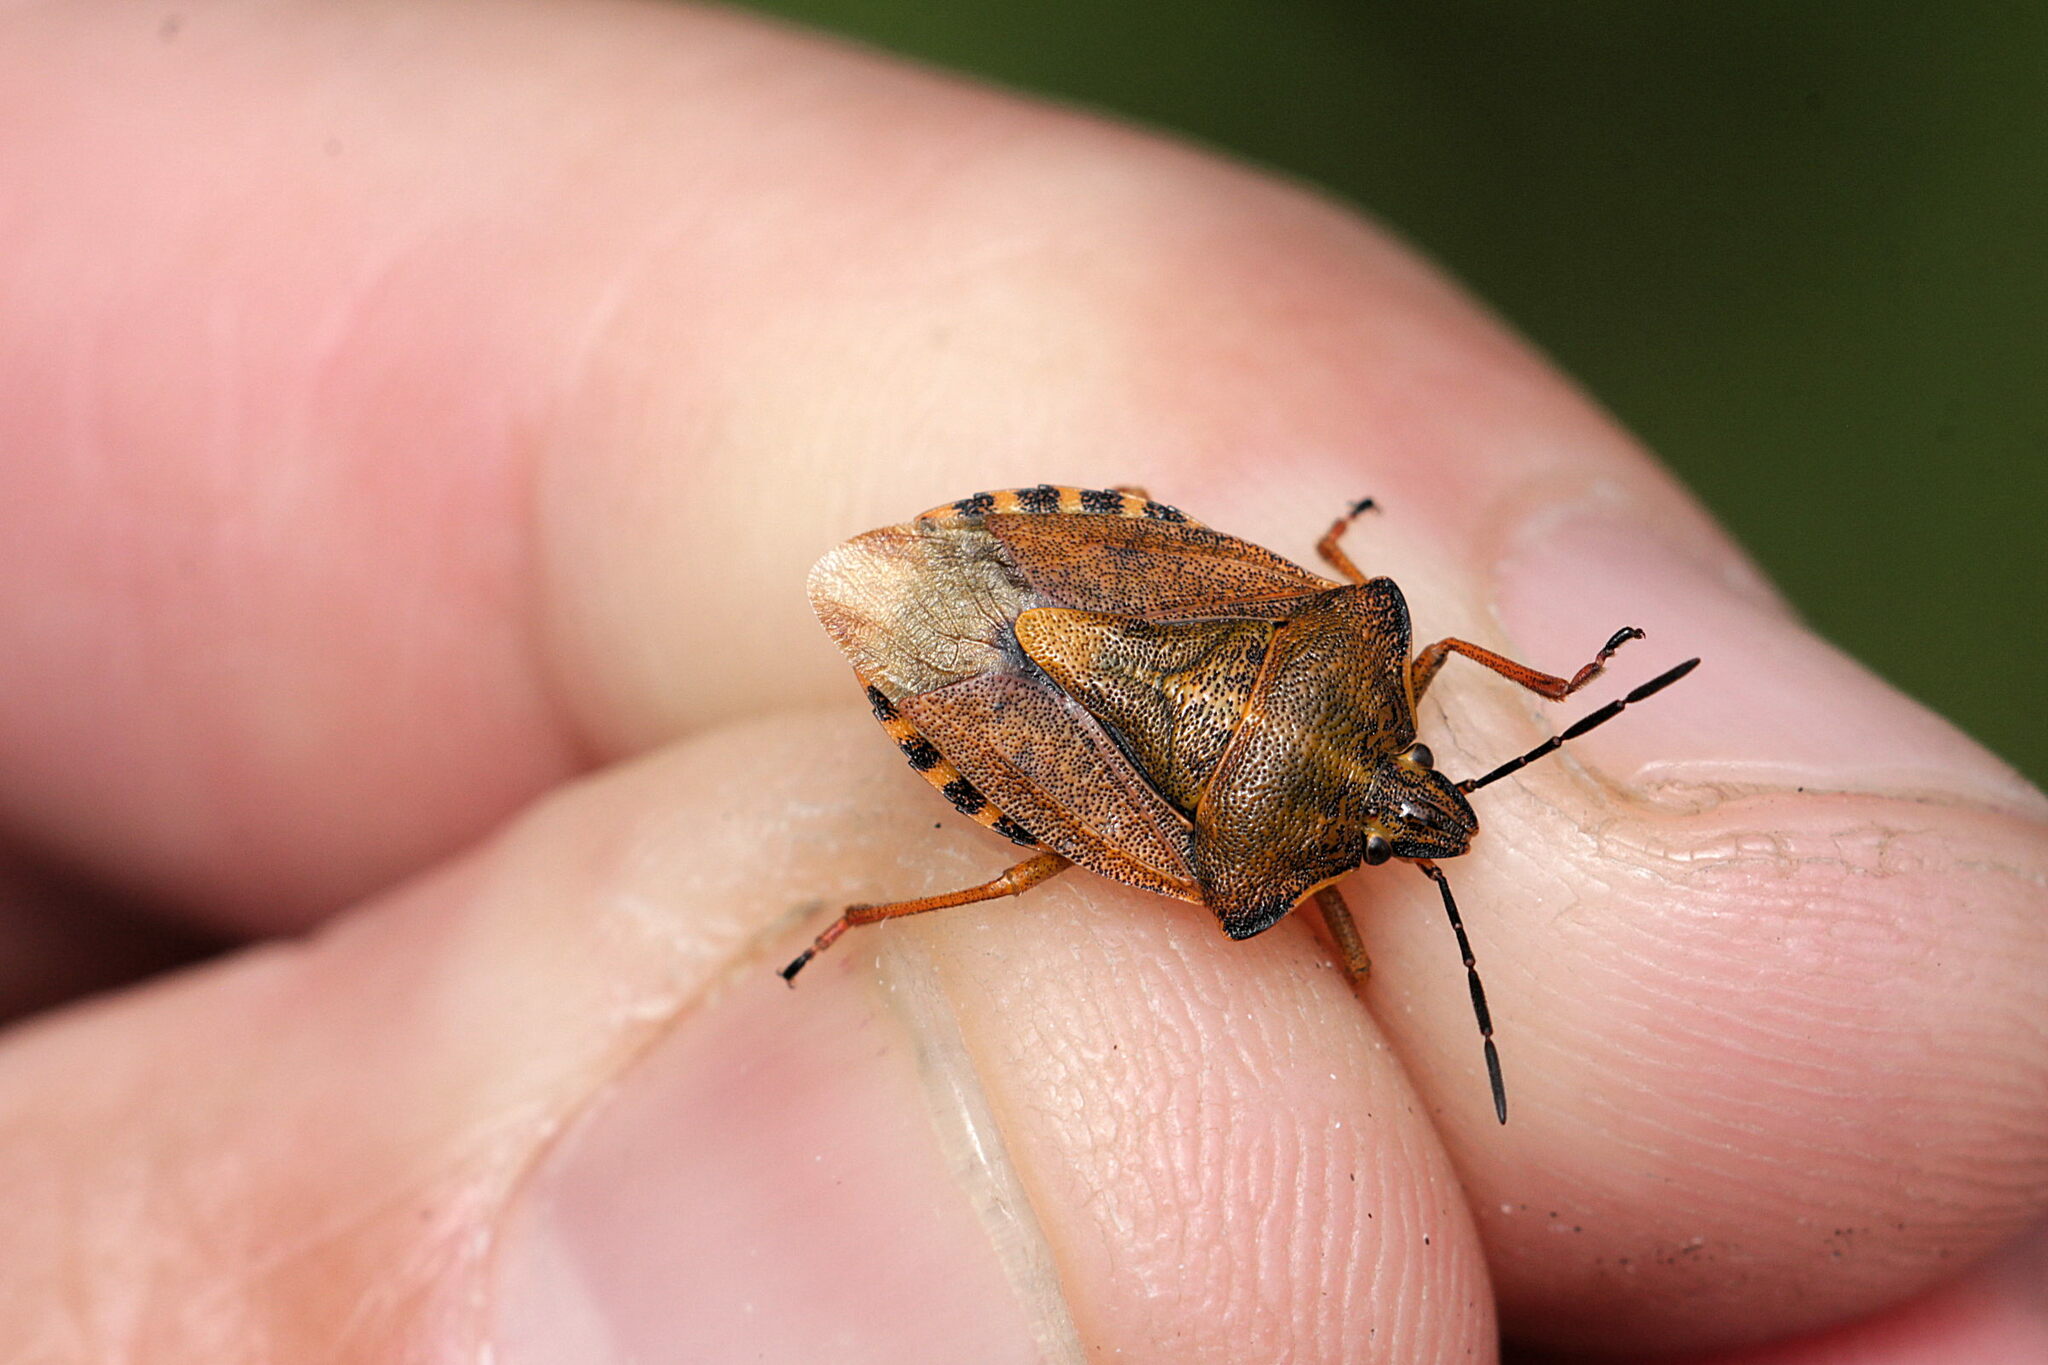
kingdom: Animalia
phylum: Arthropoda
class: Insecta
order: Hemiptera
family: Pentatomidae
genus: Carpocoris
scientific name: Carpocoris purpureipennis
